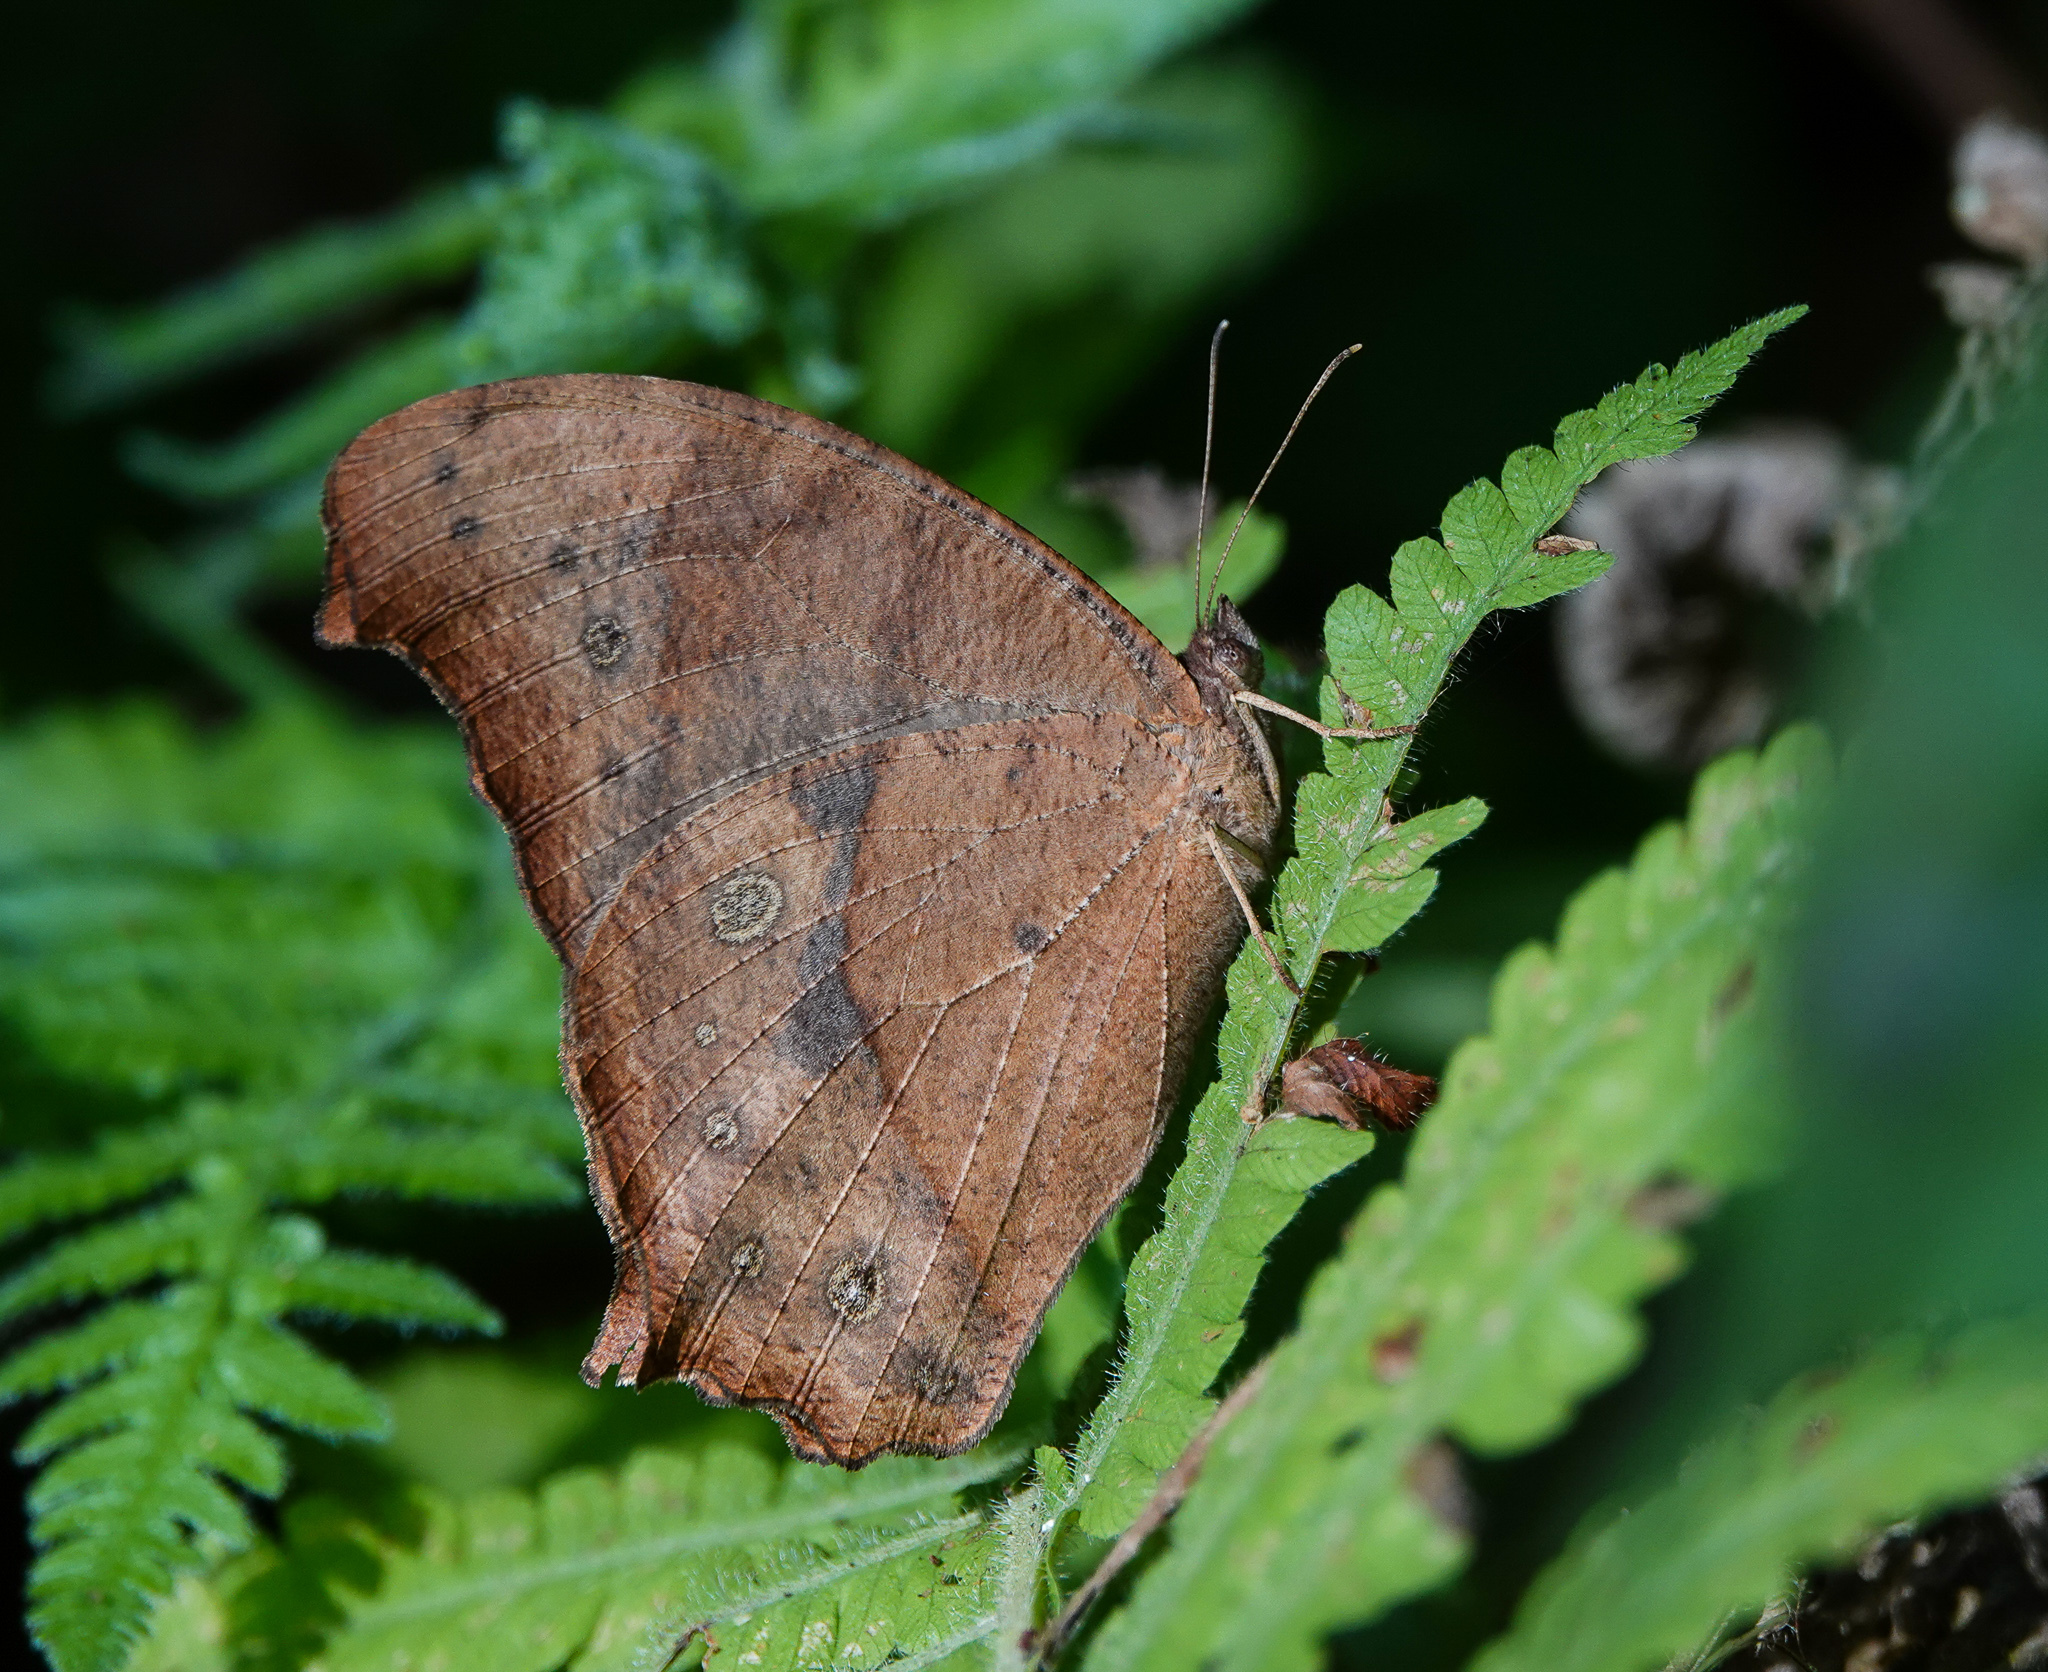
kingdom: Animalia
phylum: Arthropoda
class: Insecta
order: Lepidoptera
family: Nymphalidae
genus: Melanitis
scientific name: Melanitis phedima
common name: Dark evening brown
